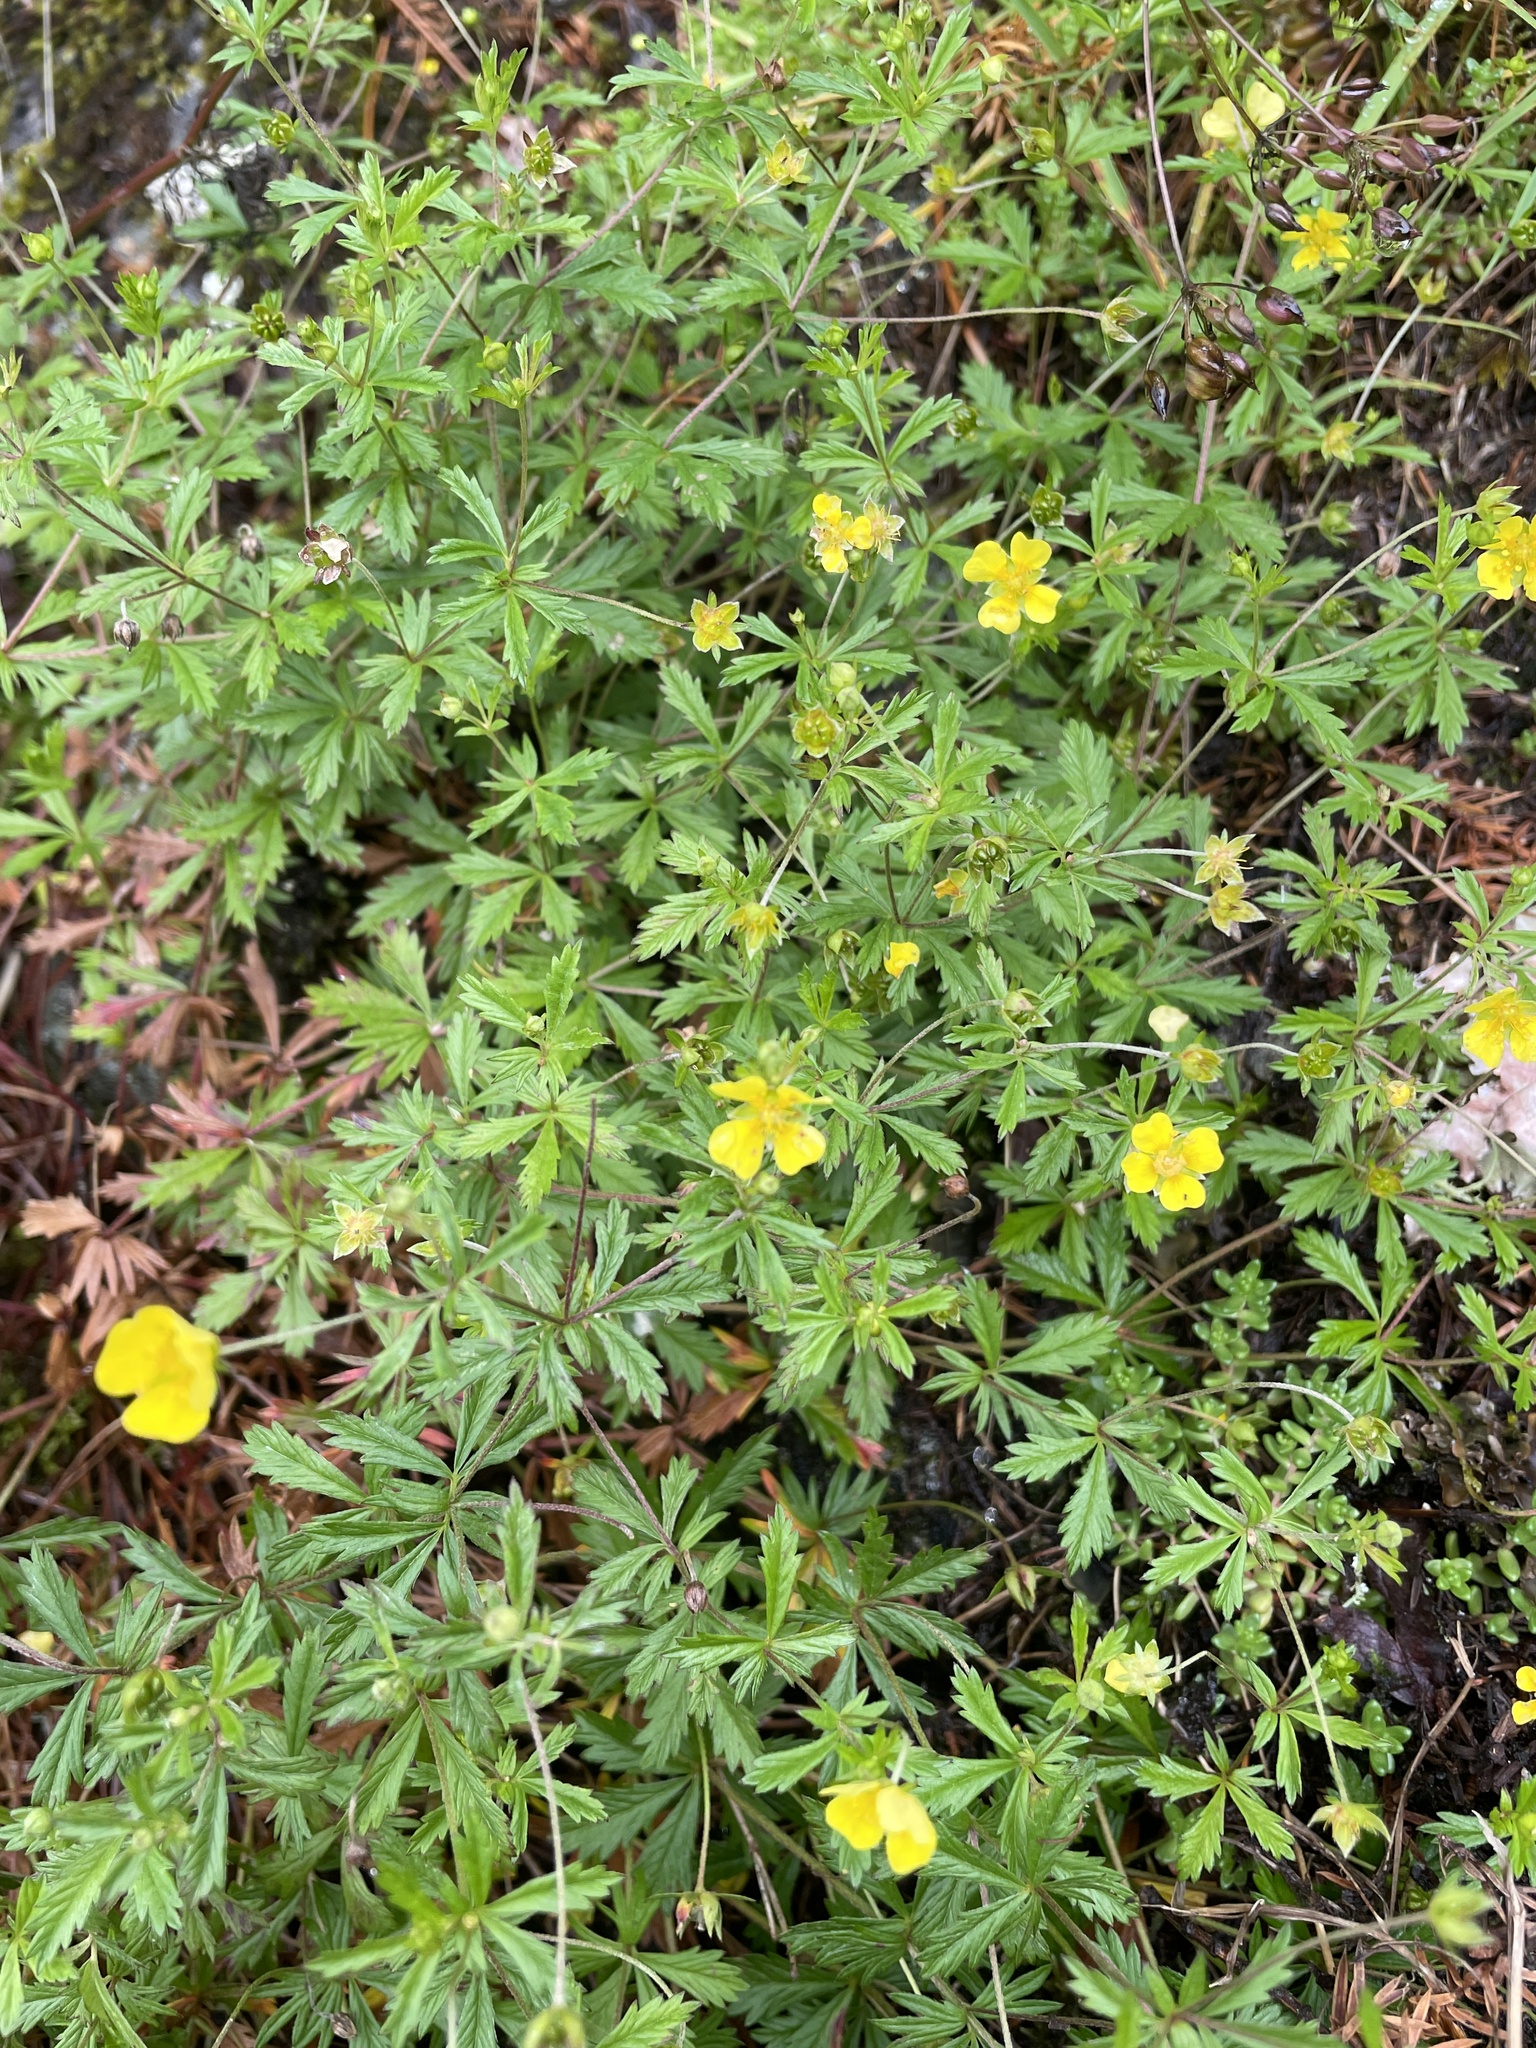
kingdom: Plantae
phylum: Tracheophyta
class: Magnoliopsida
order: Rosales
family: Rosaceae
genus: Potentilla
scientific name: Potentilla erecta
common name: Tormentil
